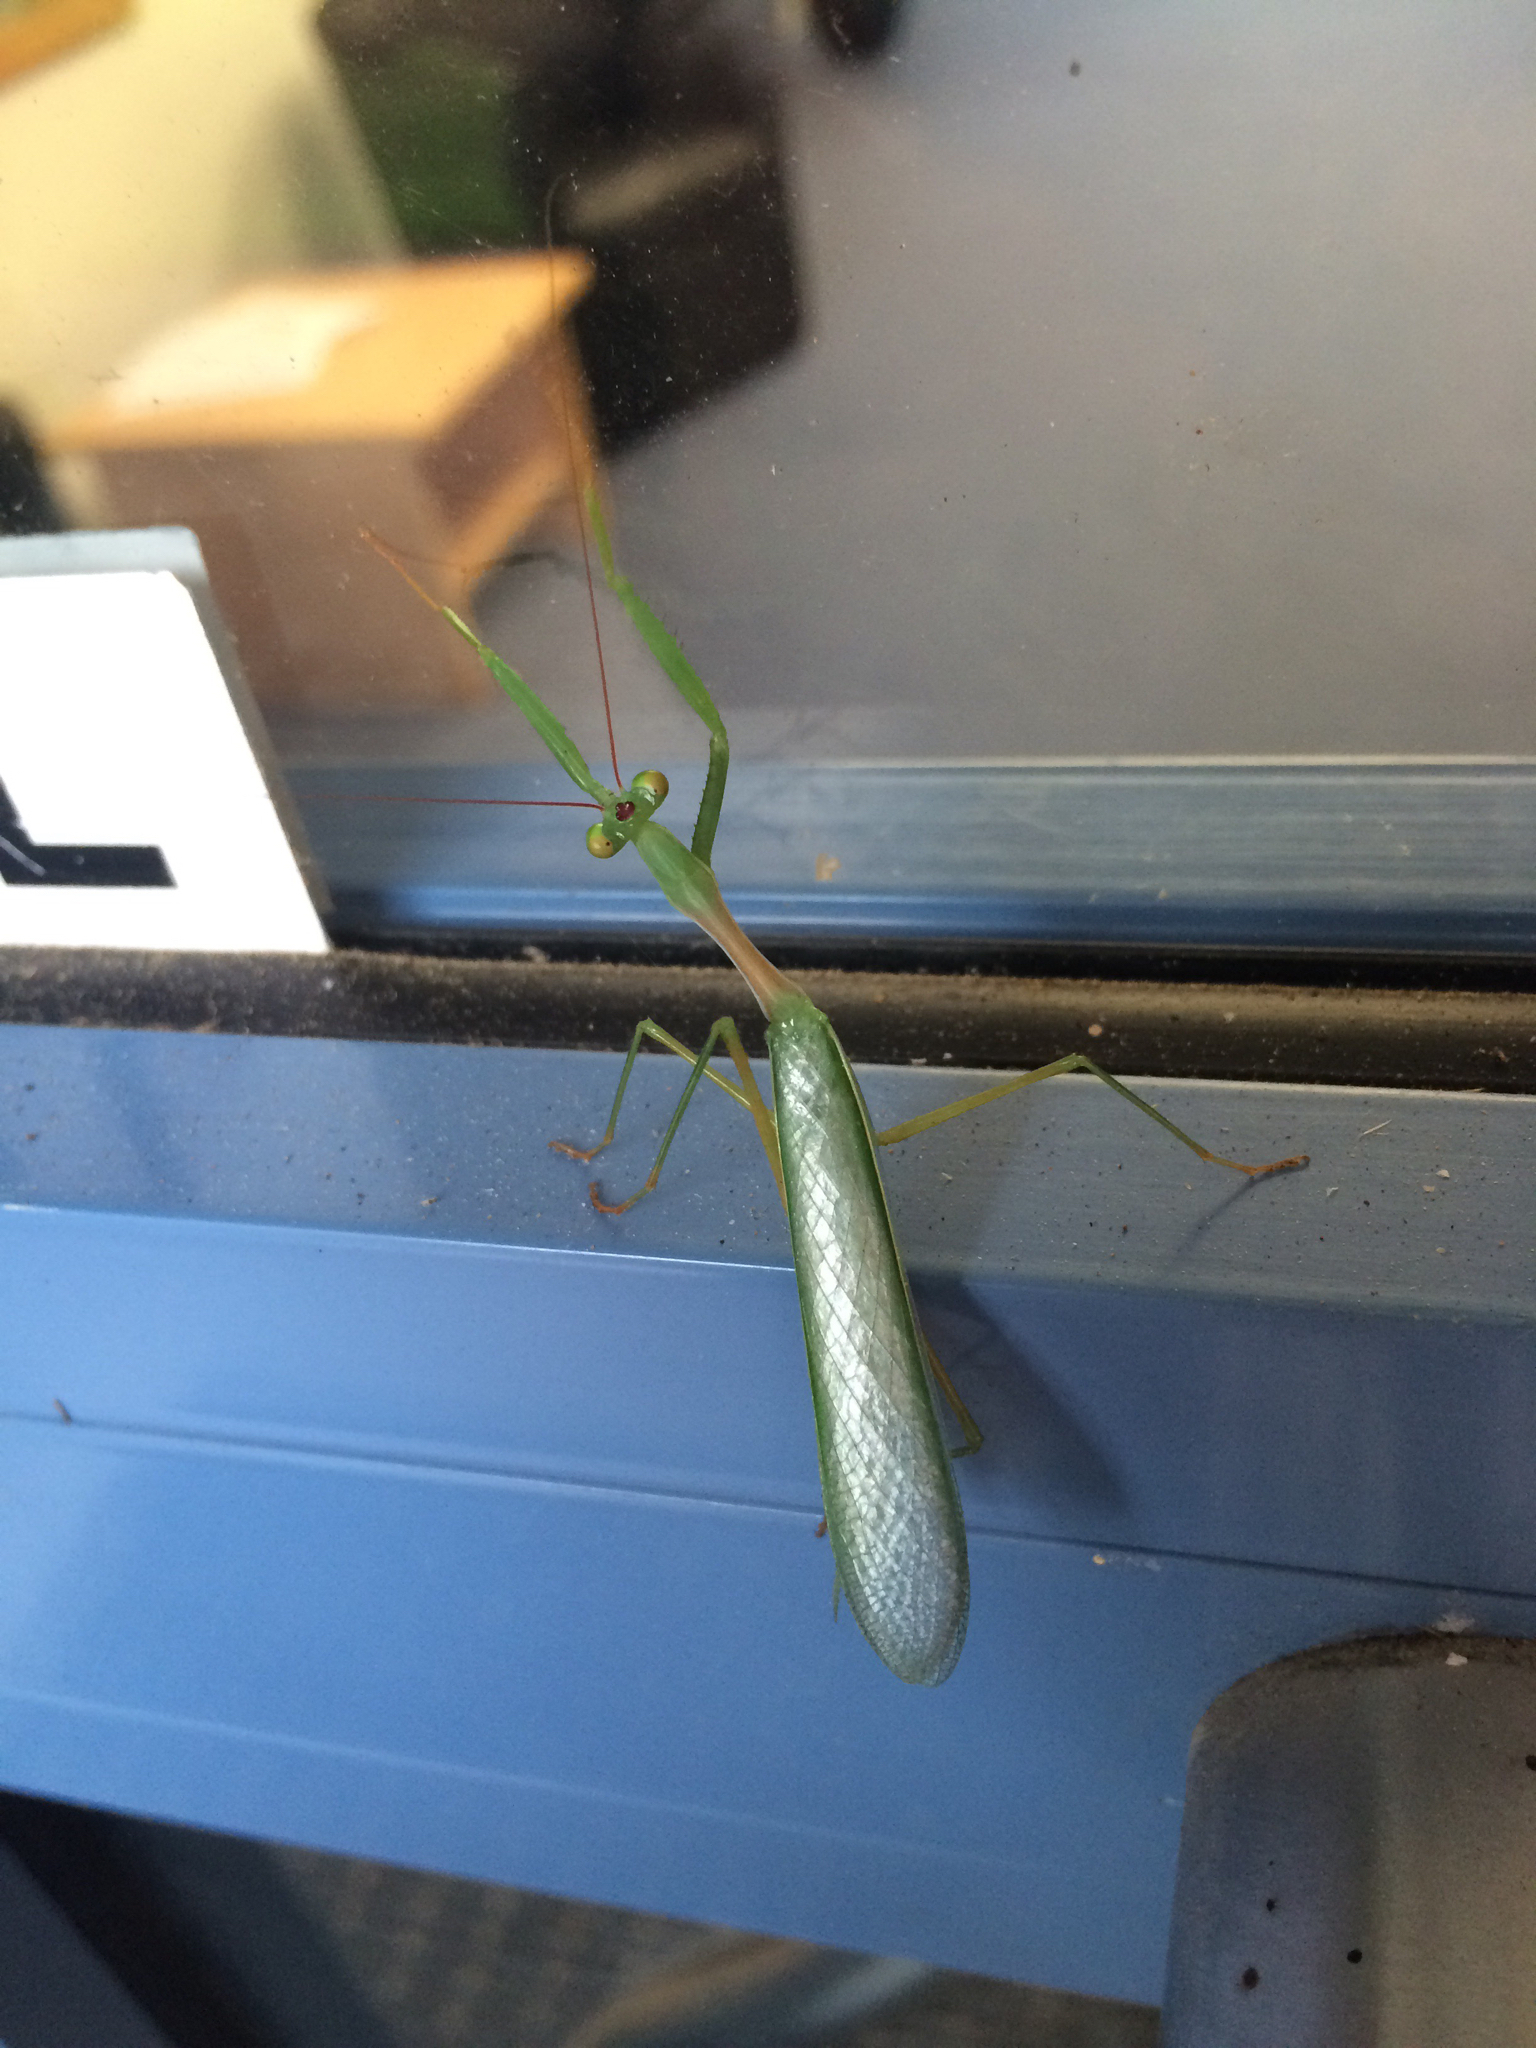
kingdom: Animalia
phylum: Arthropoda
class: Insecta
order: Mantodea
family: Miomantidae
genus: Miomantis
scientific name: Miomantis caffra
